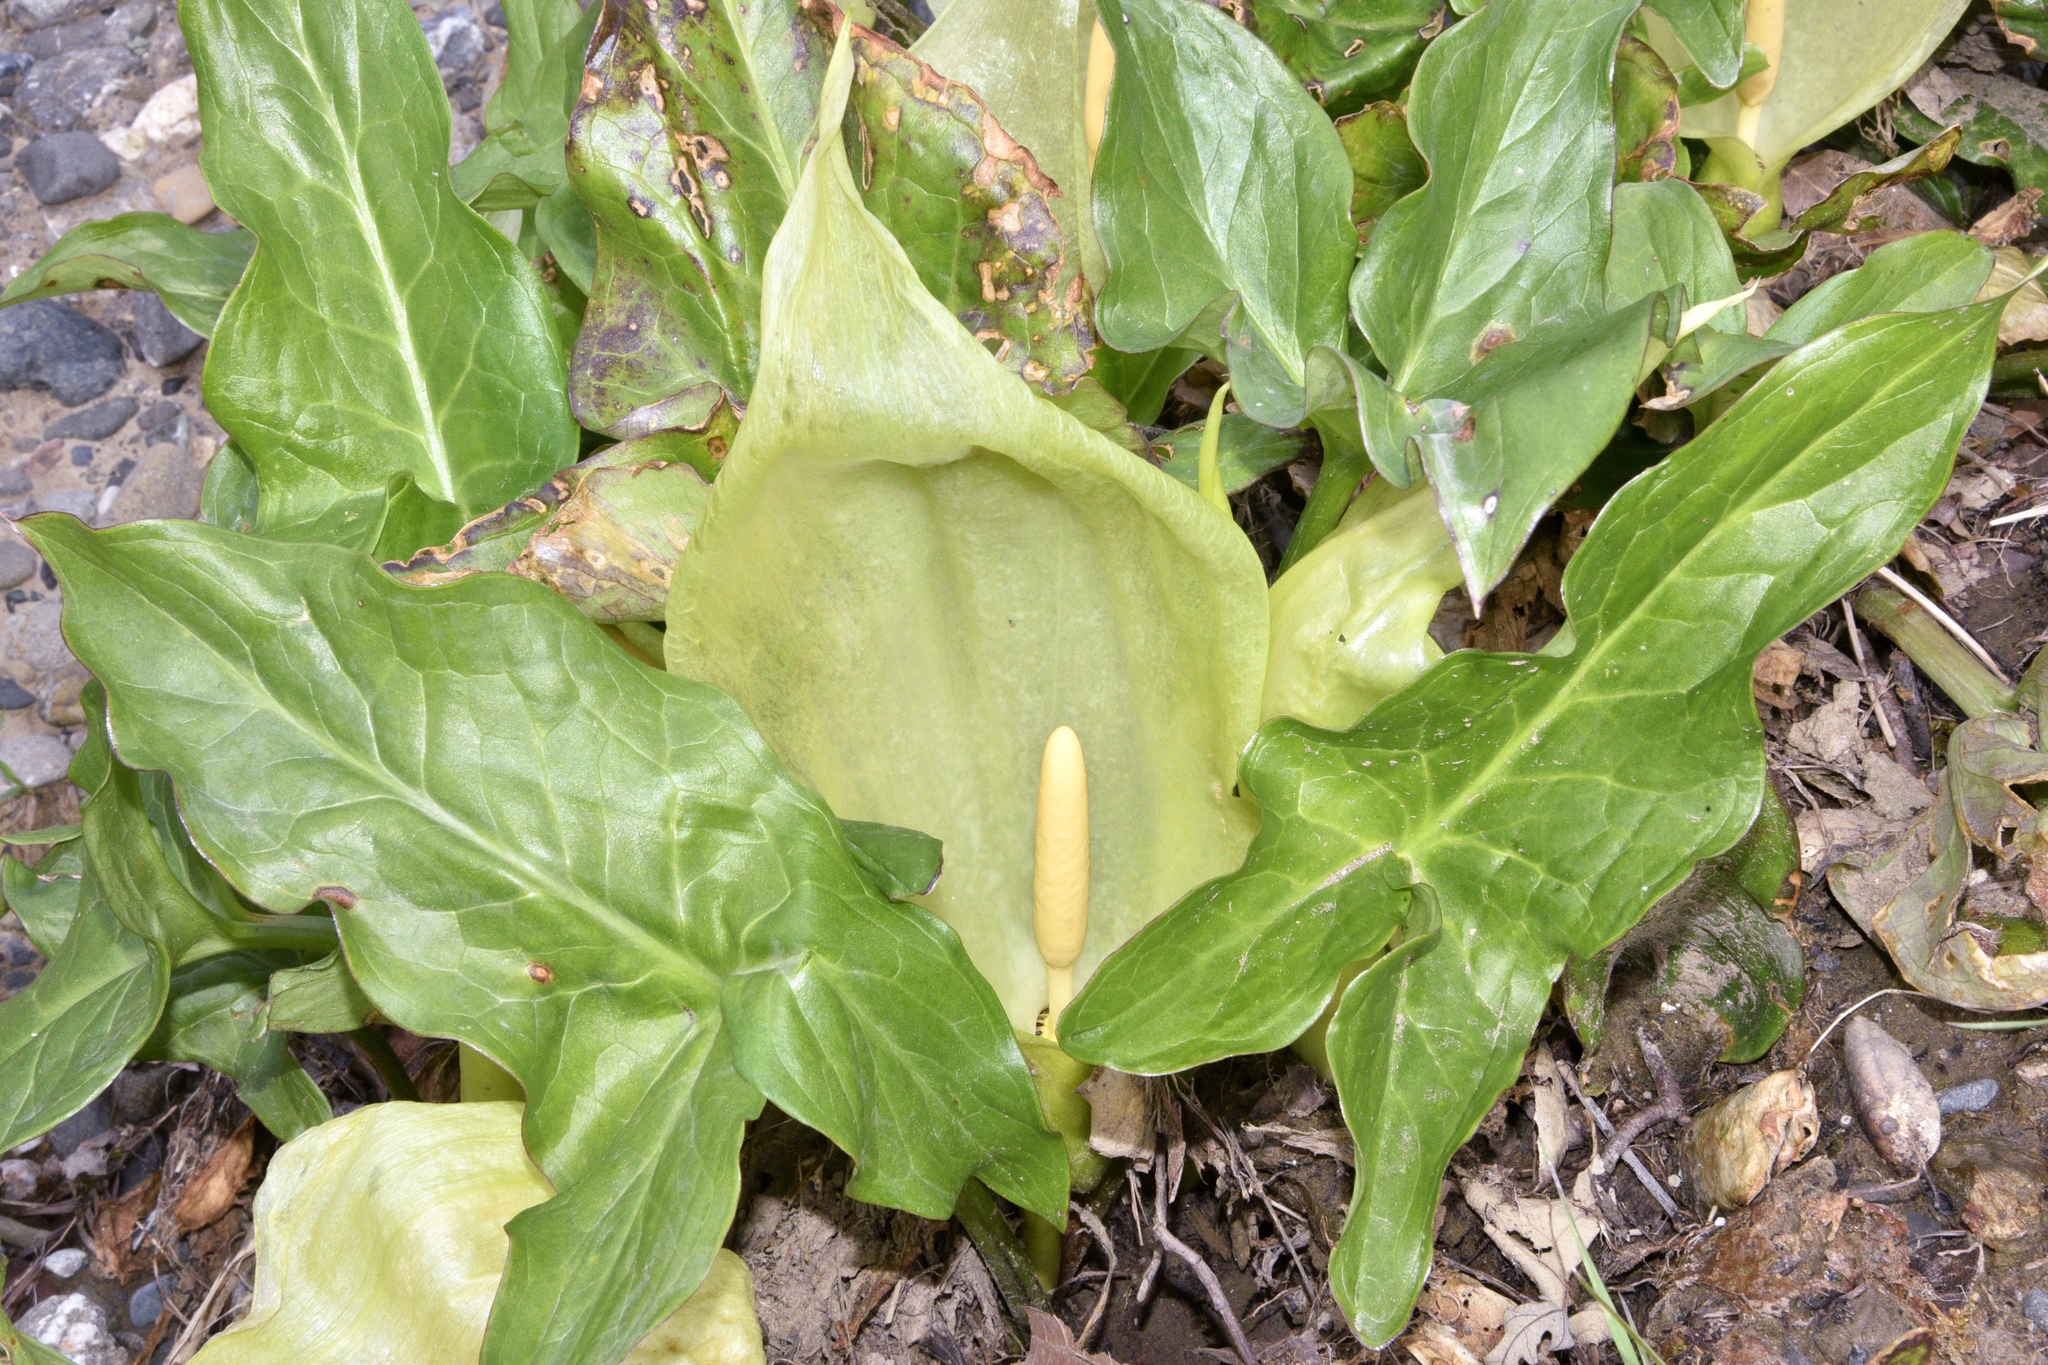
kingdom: Plantae
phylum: Tracheophyta
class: Liliopsida
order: Alismatales
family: Araceae
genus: Arum
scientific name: Arum italicum
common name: Italian lords-and-ladies
